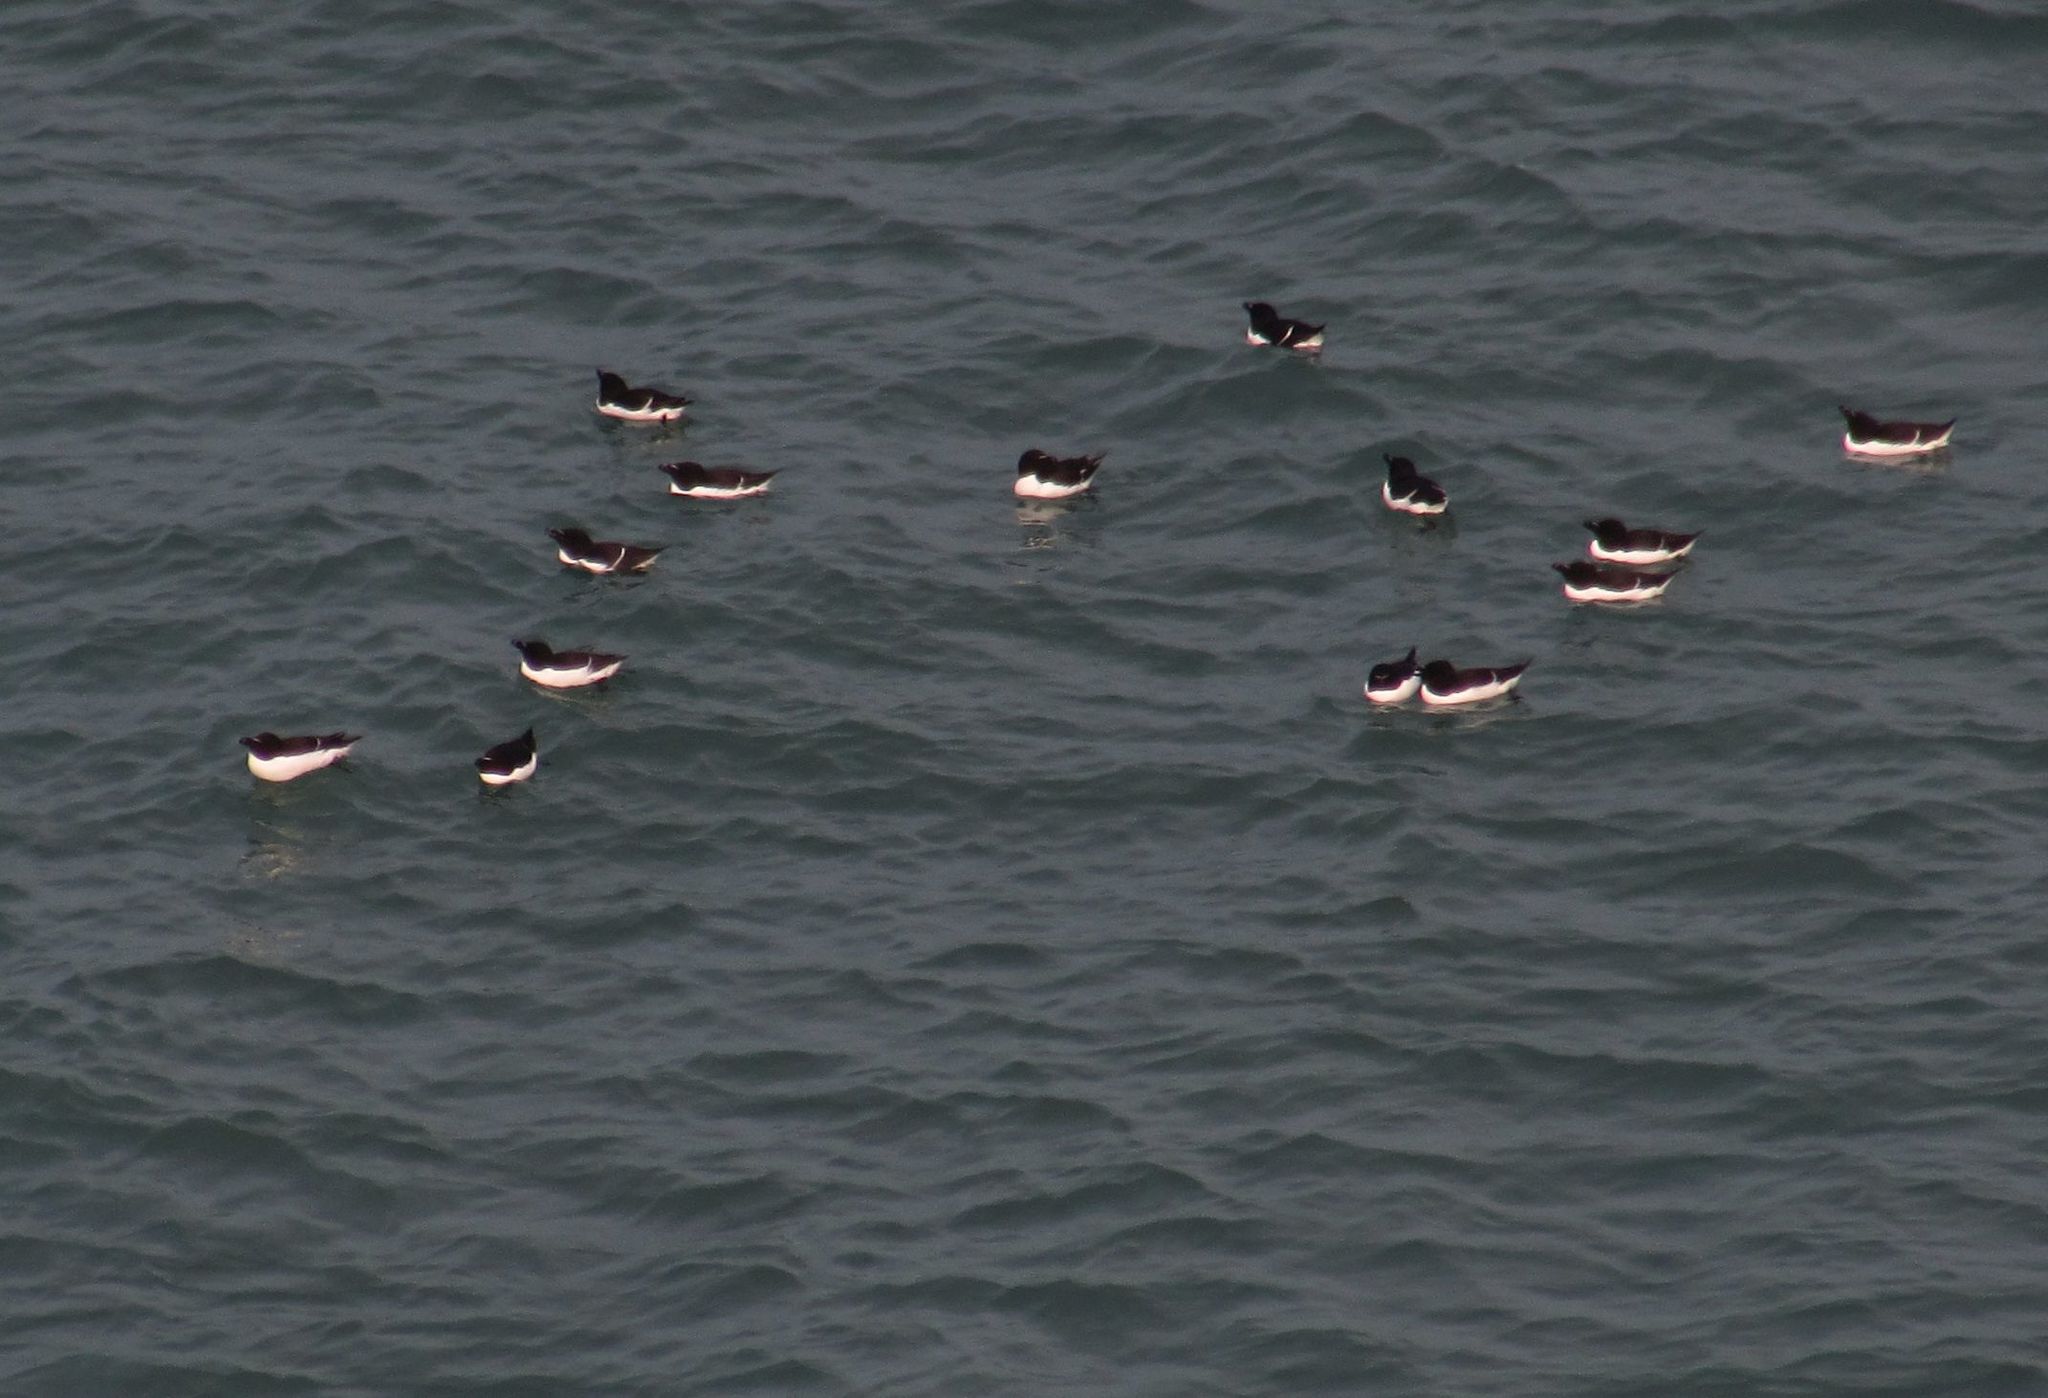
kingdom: Animalia
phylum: Chordata
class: Aves
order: Charadriiformes
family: Alcidae
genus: Alca
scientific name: Alca torda
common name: Razorbill
